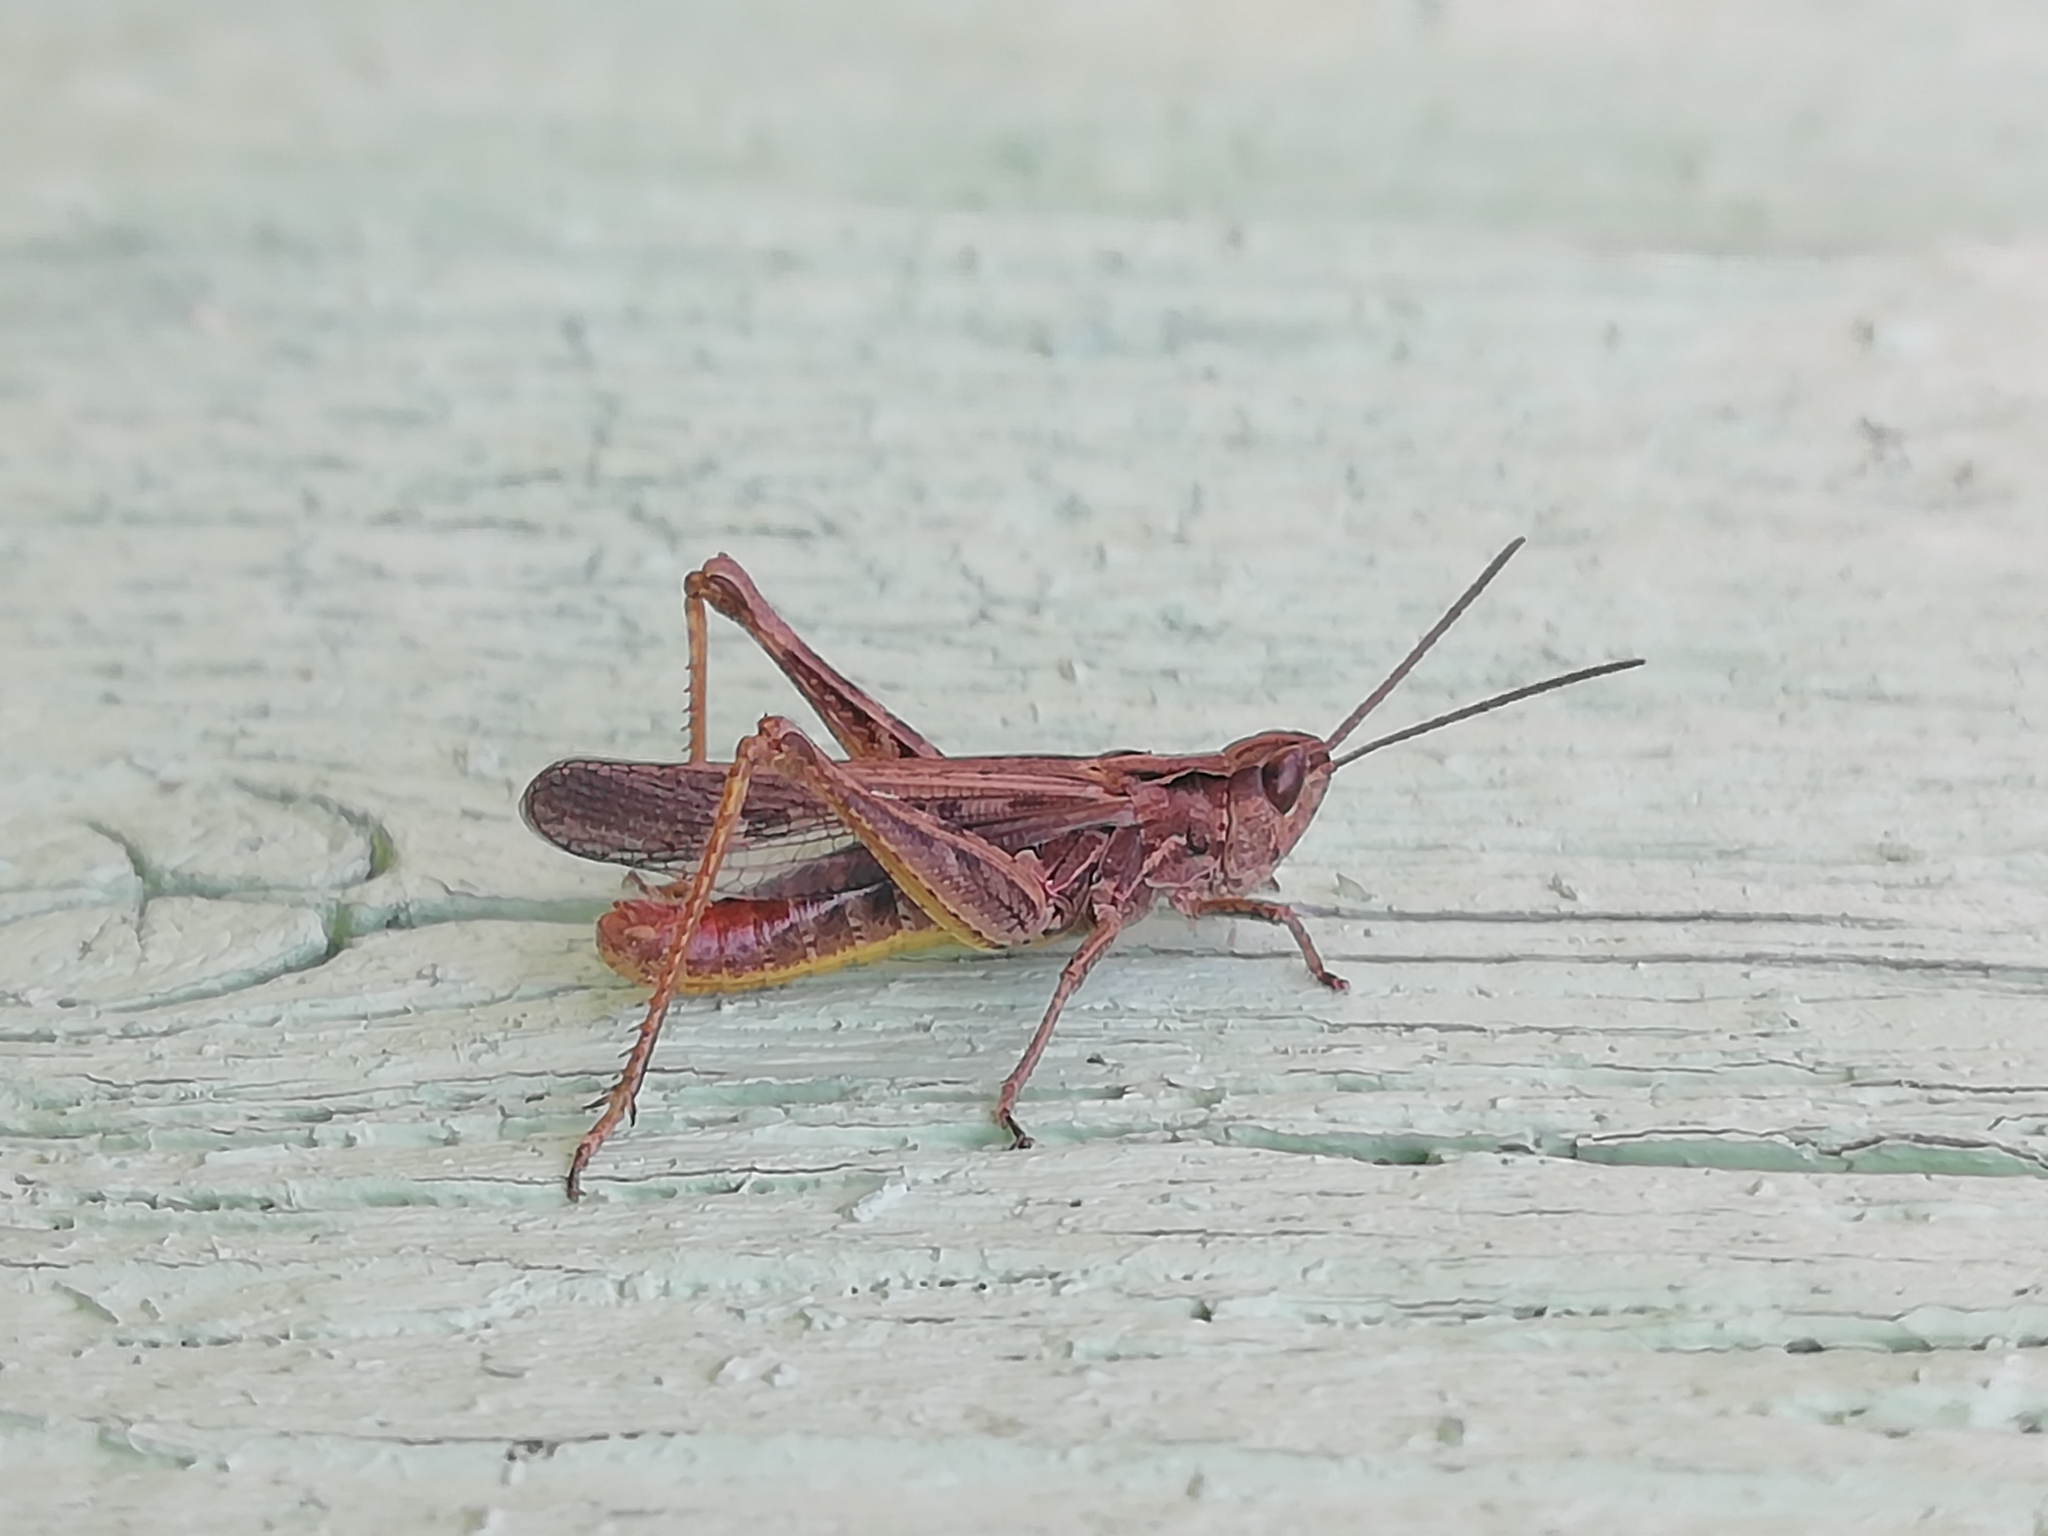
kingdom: Animalia
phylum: Arthropoda
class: Insecta
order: Orthoptera
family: Acrididae
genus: Chorthippus
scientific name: Chorthippus biguttulus
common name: Bow-winged grasshopper
